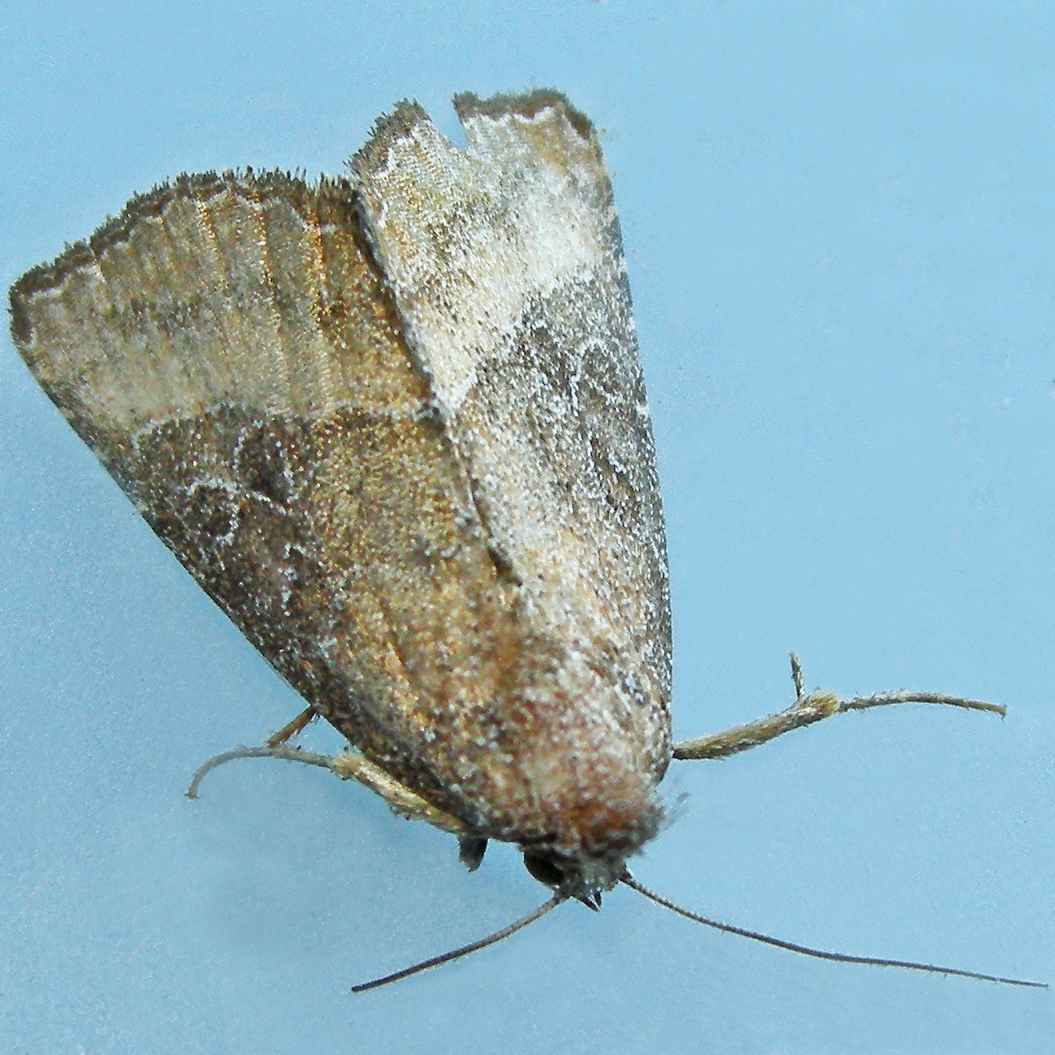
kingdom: Animalia
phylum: Arthropoda
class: Insecta
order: Lepidoptera
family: Noctuidae
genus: Ogdoconta
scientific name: Ogdoconta cinereola
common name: Common pinkband
